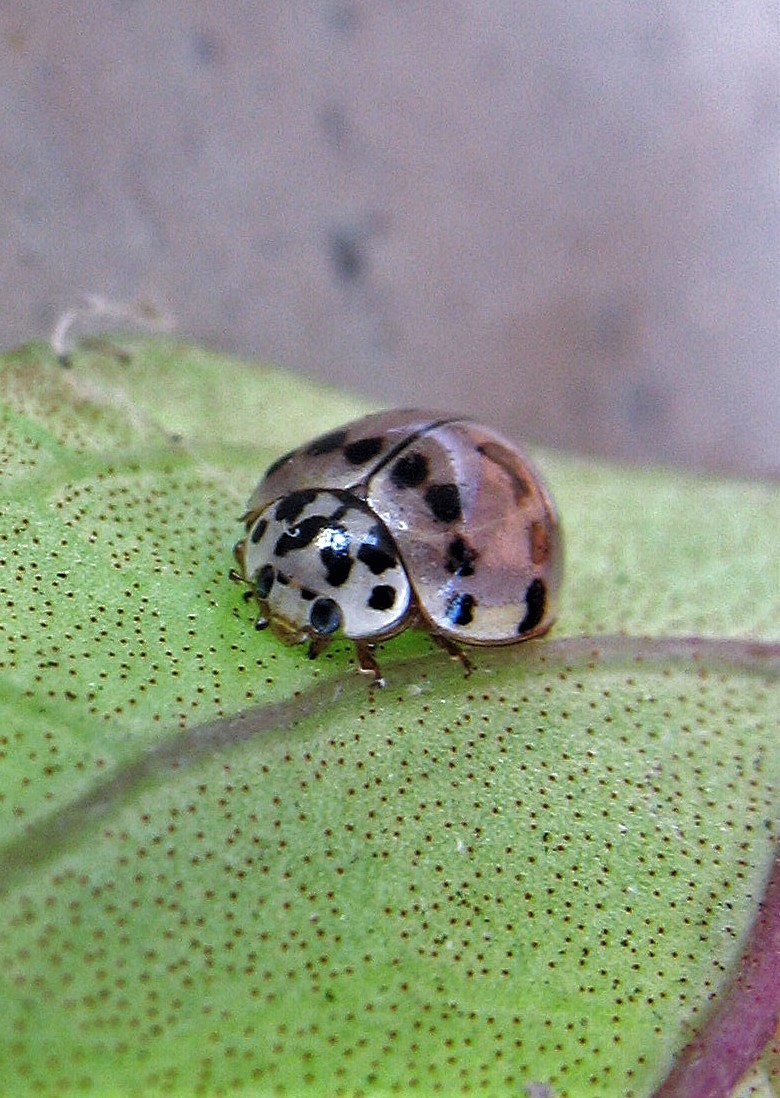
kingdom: Animalia
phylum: Arthropoda
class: Insecta
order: Coleoptera
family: Coccinellidae
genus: Olla
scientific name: Olla v-nigrum
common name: Ashy gray lady beetle
